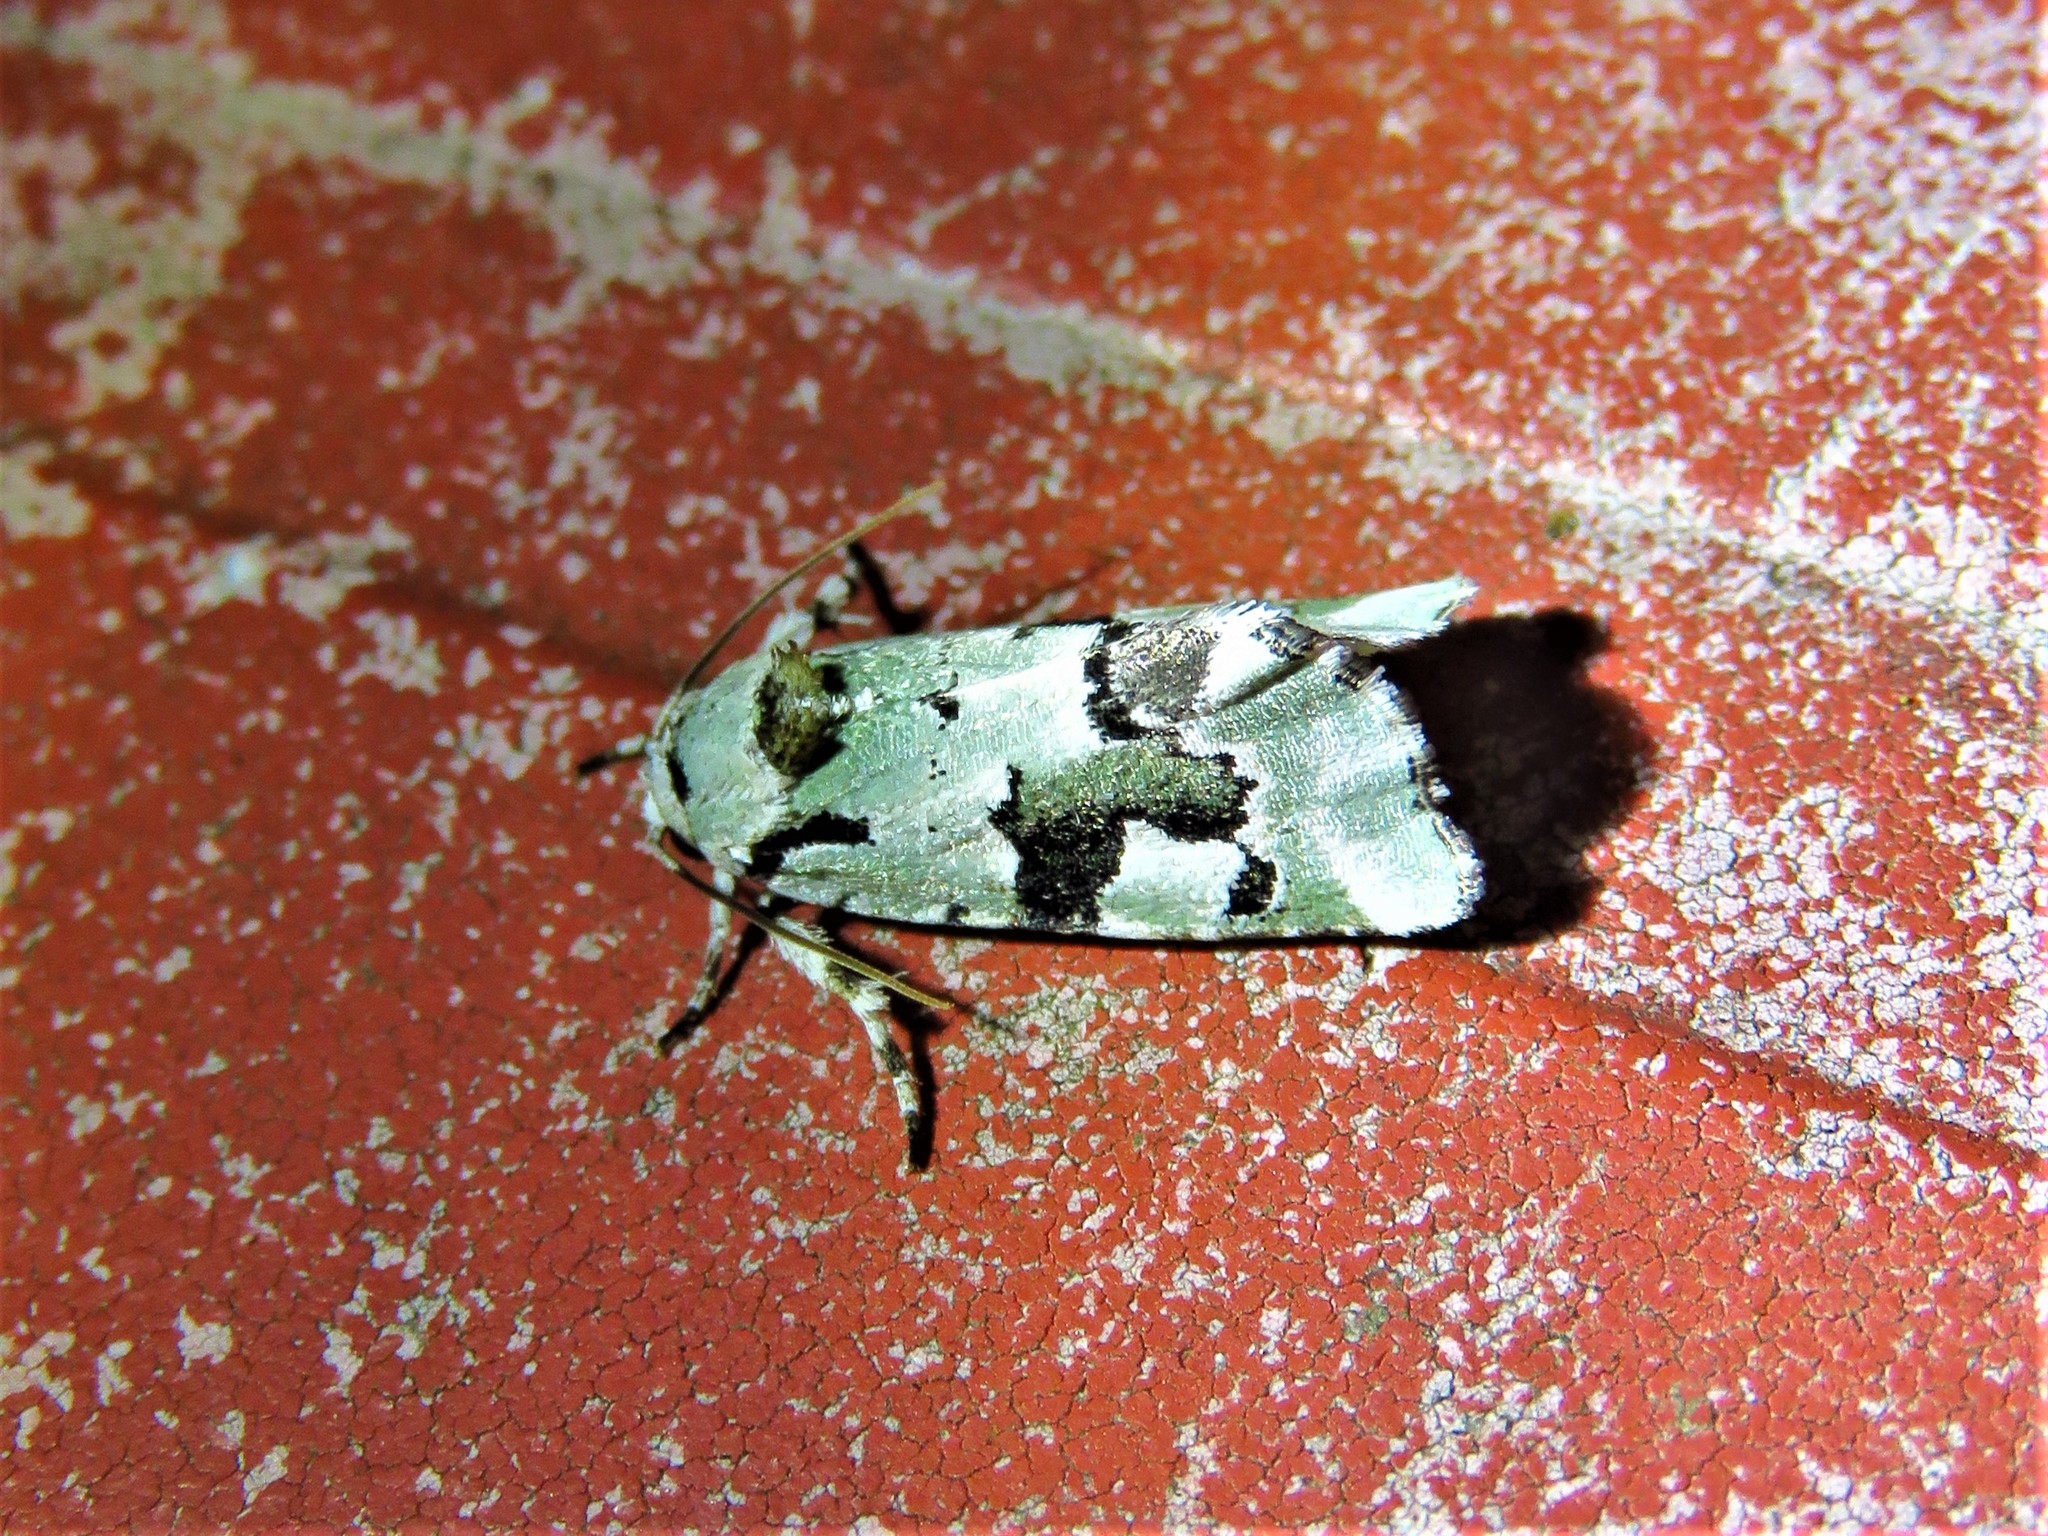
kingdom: Animalia
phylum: Arthropoda
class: Insecta
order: Lepidoptera
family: Noctuidae
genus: Emarginea
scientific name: Emarginea percara
